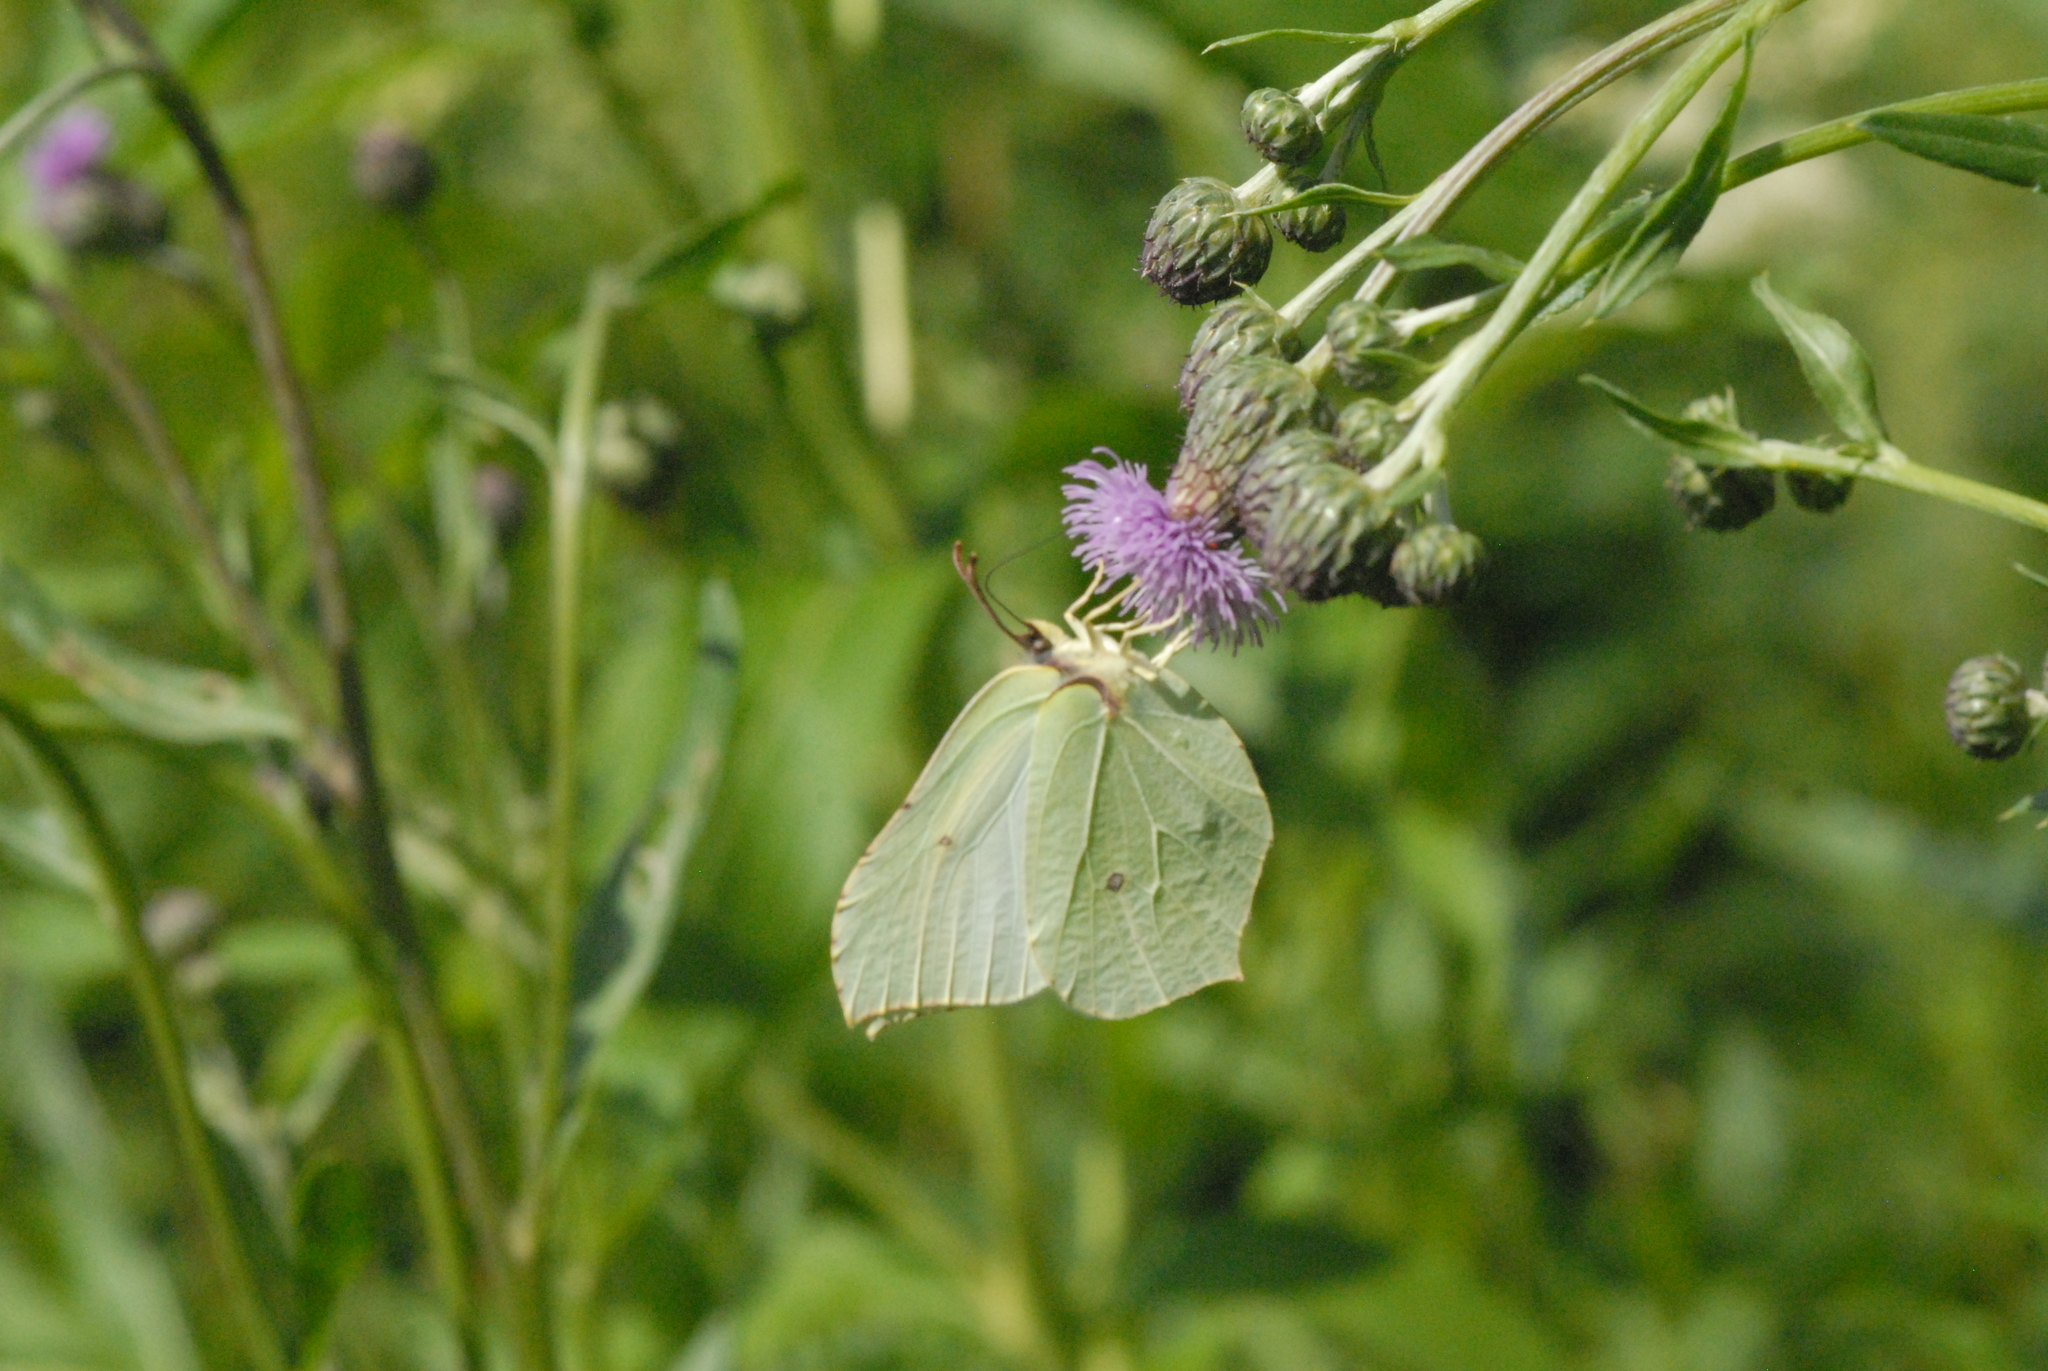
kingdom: Animalia
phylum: Arthropoda
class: Insecta
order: Lepidoptera
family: Pieridae
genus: Gonepteryx
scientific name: Gonepteryx rhamni
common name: Brimstone
